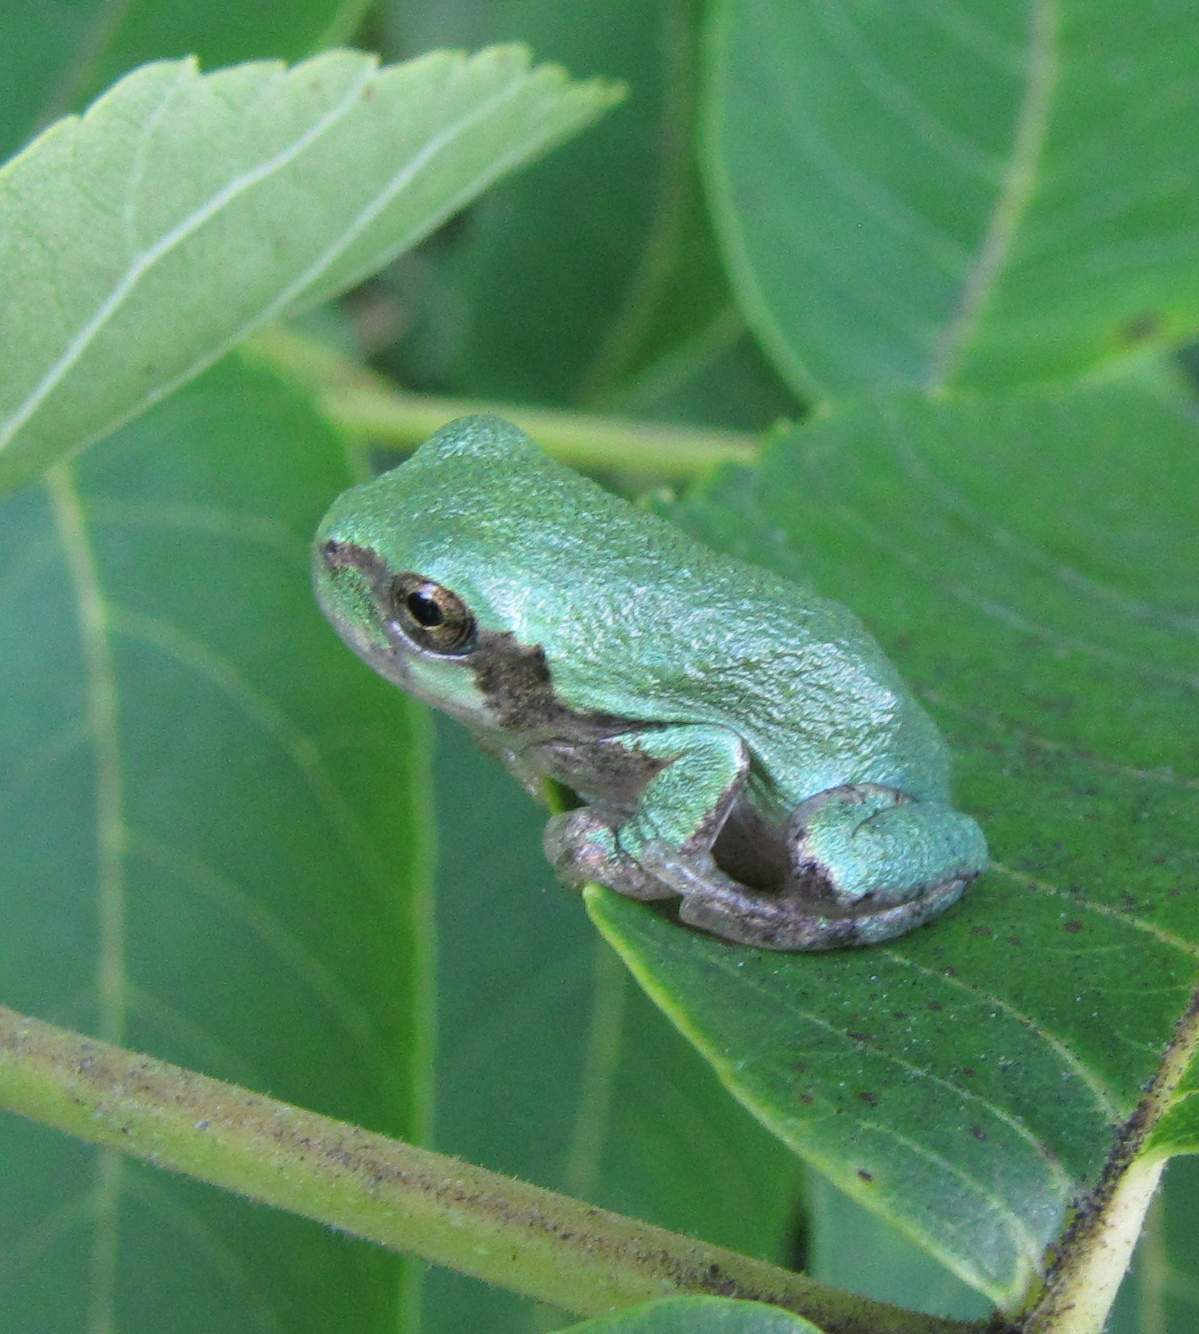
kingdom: Animalia
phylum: Chordata
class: Amphibia
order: Anura
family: Hylidae
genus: Dryophytes
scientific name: Dryophytes versicolor
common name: Gray treefrog
